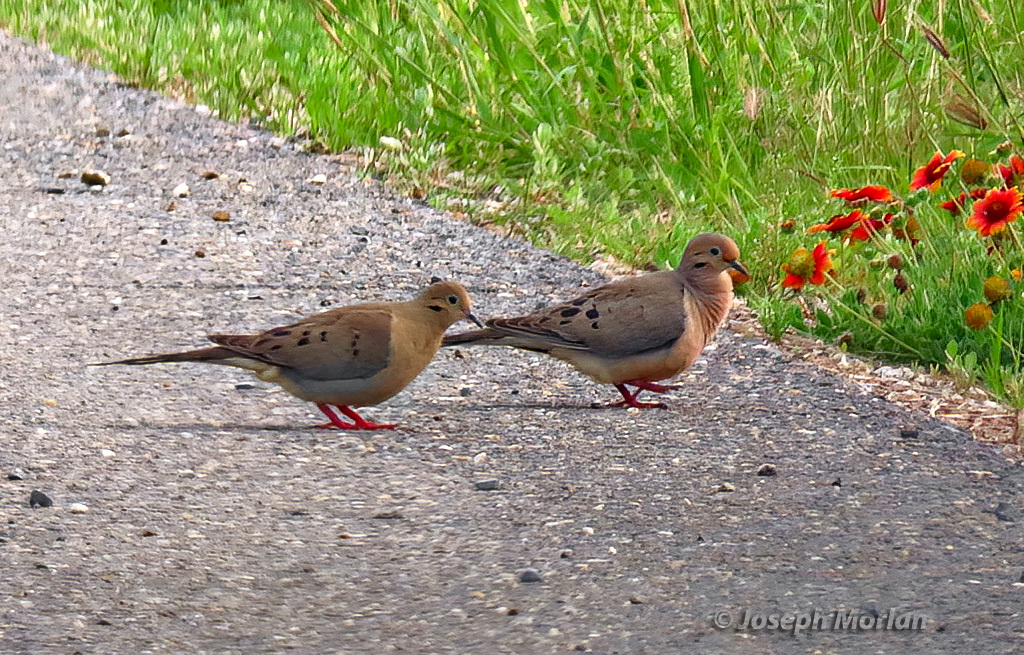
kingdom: Animalia
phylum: Chordata
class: Aves
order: Columbiformes
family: Columbidae
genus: Zenaida
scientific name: Zenaida macroura
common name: Mourning dove
